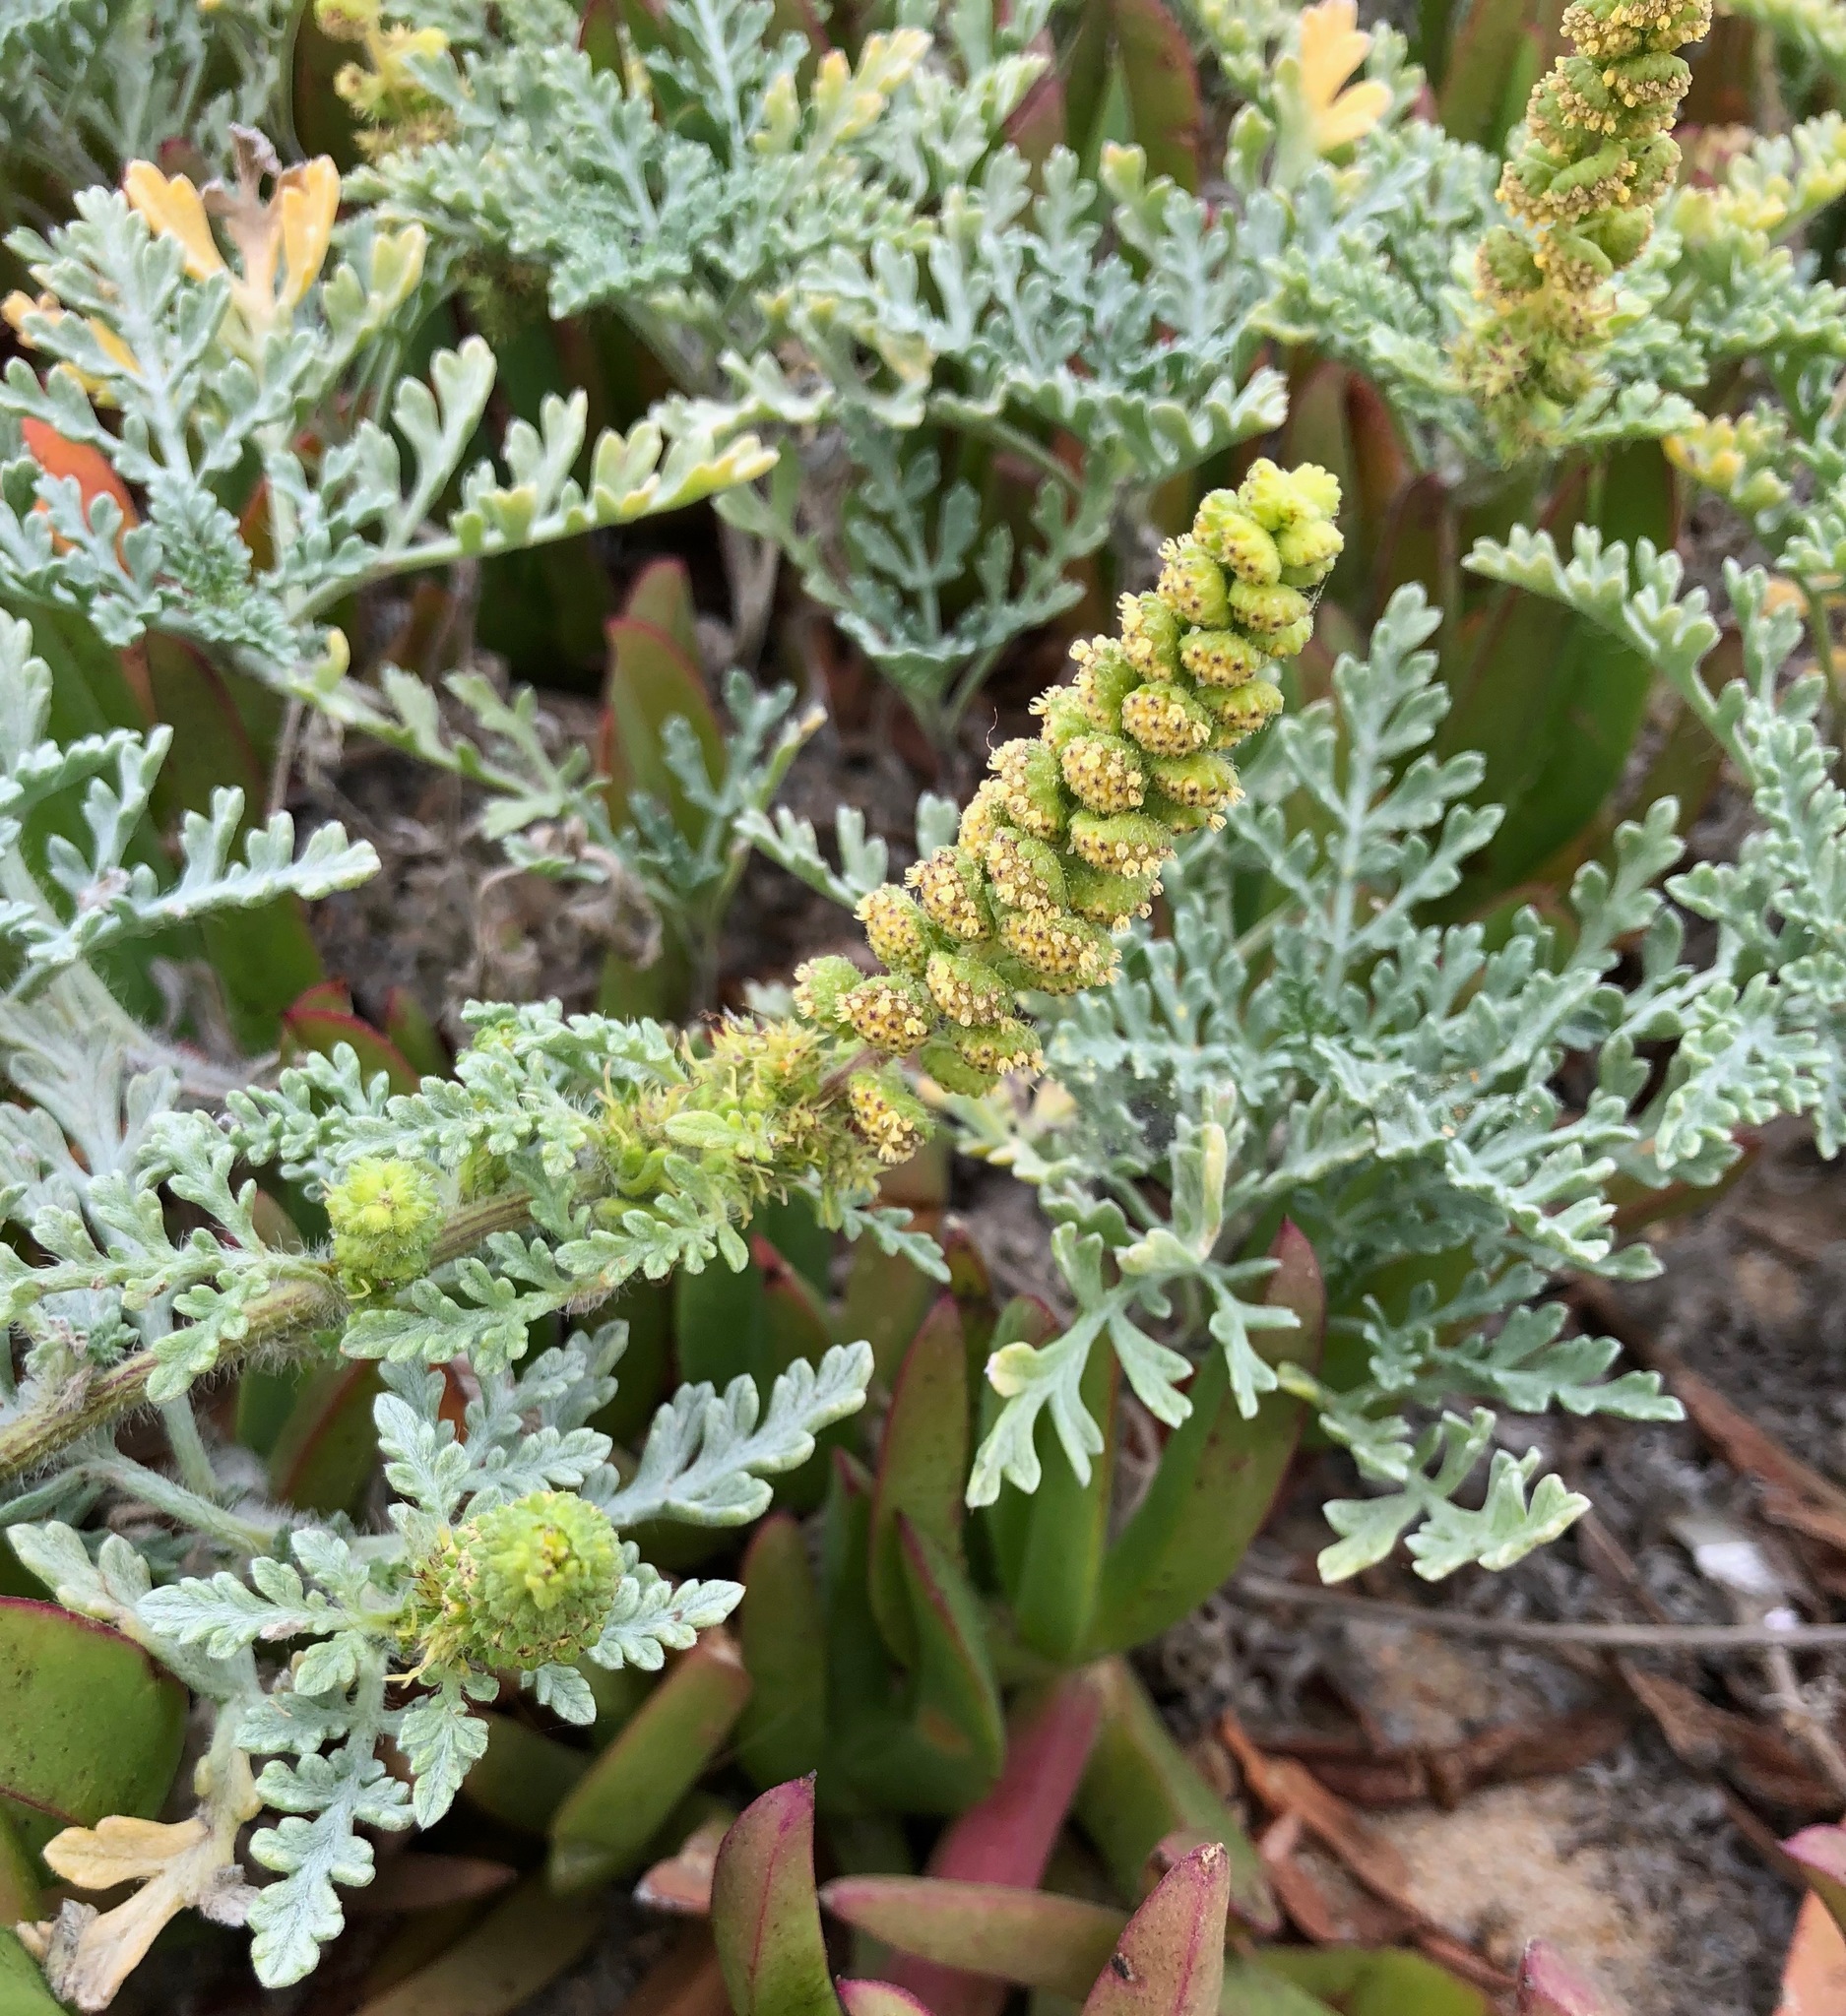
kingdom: Plantae
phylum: Tracheophyta
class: Magnoliopsida
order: Asterales
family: Asteraceae
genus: Ambrosia
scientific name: Ambrosia chamissonis
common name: Beachbur
